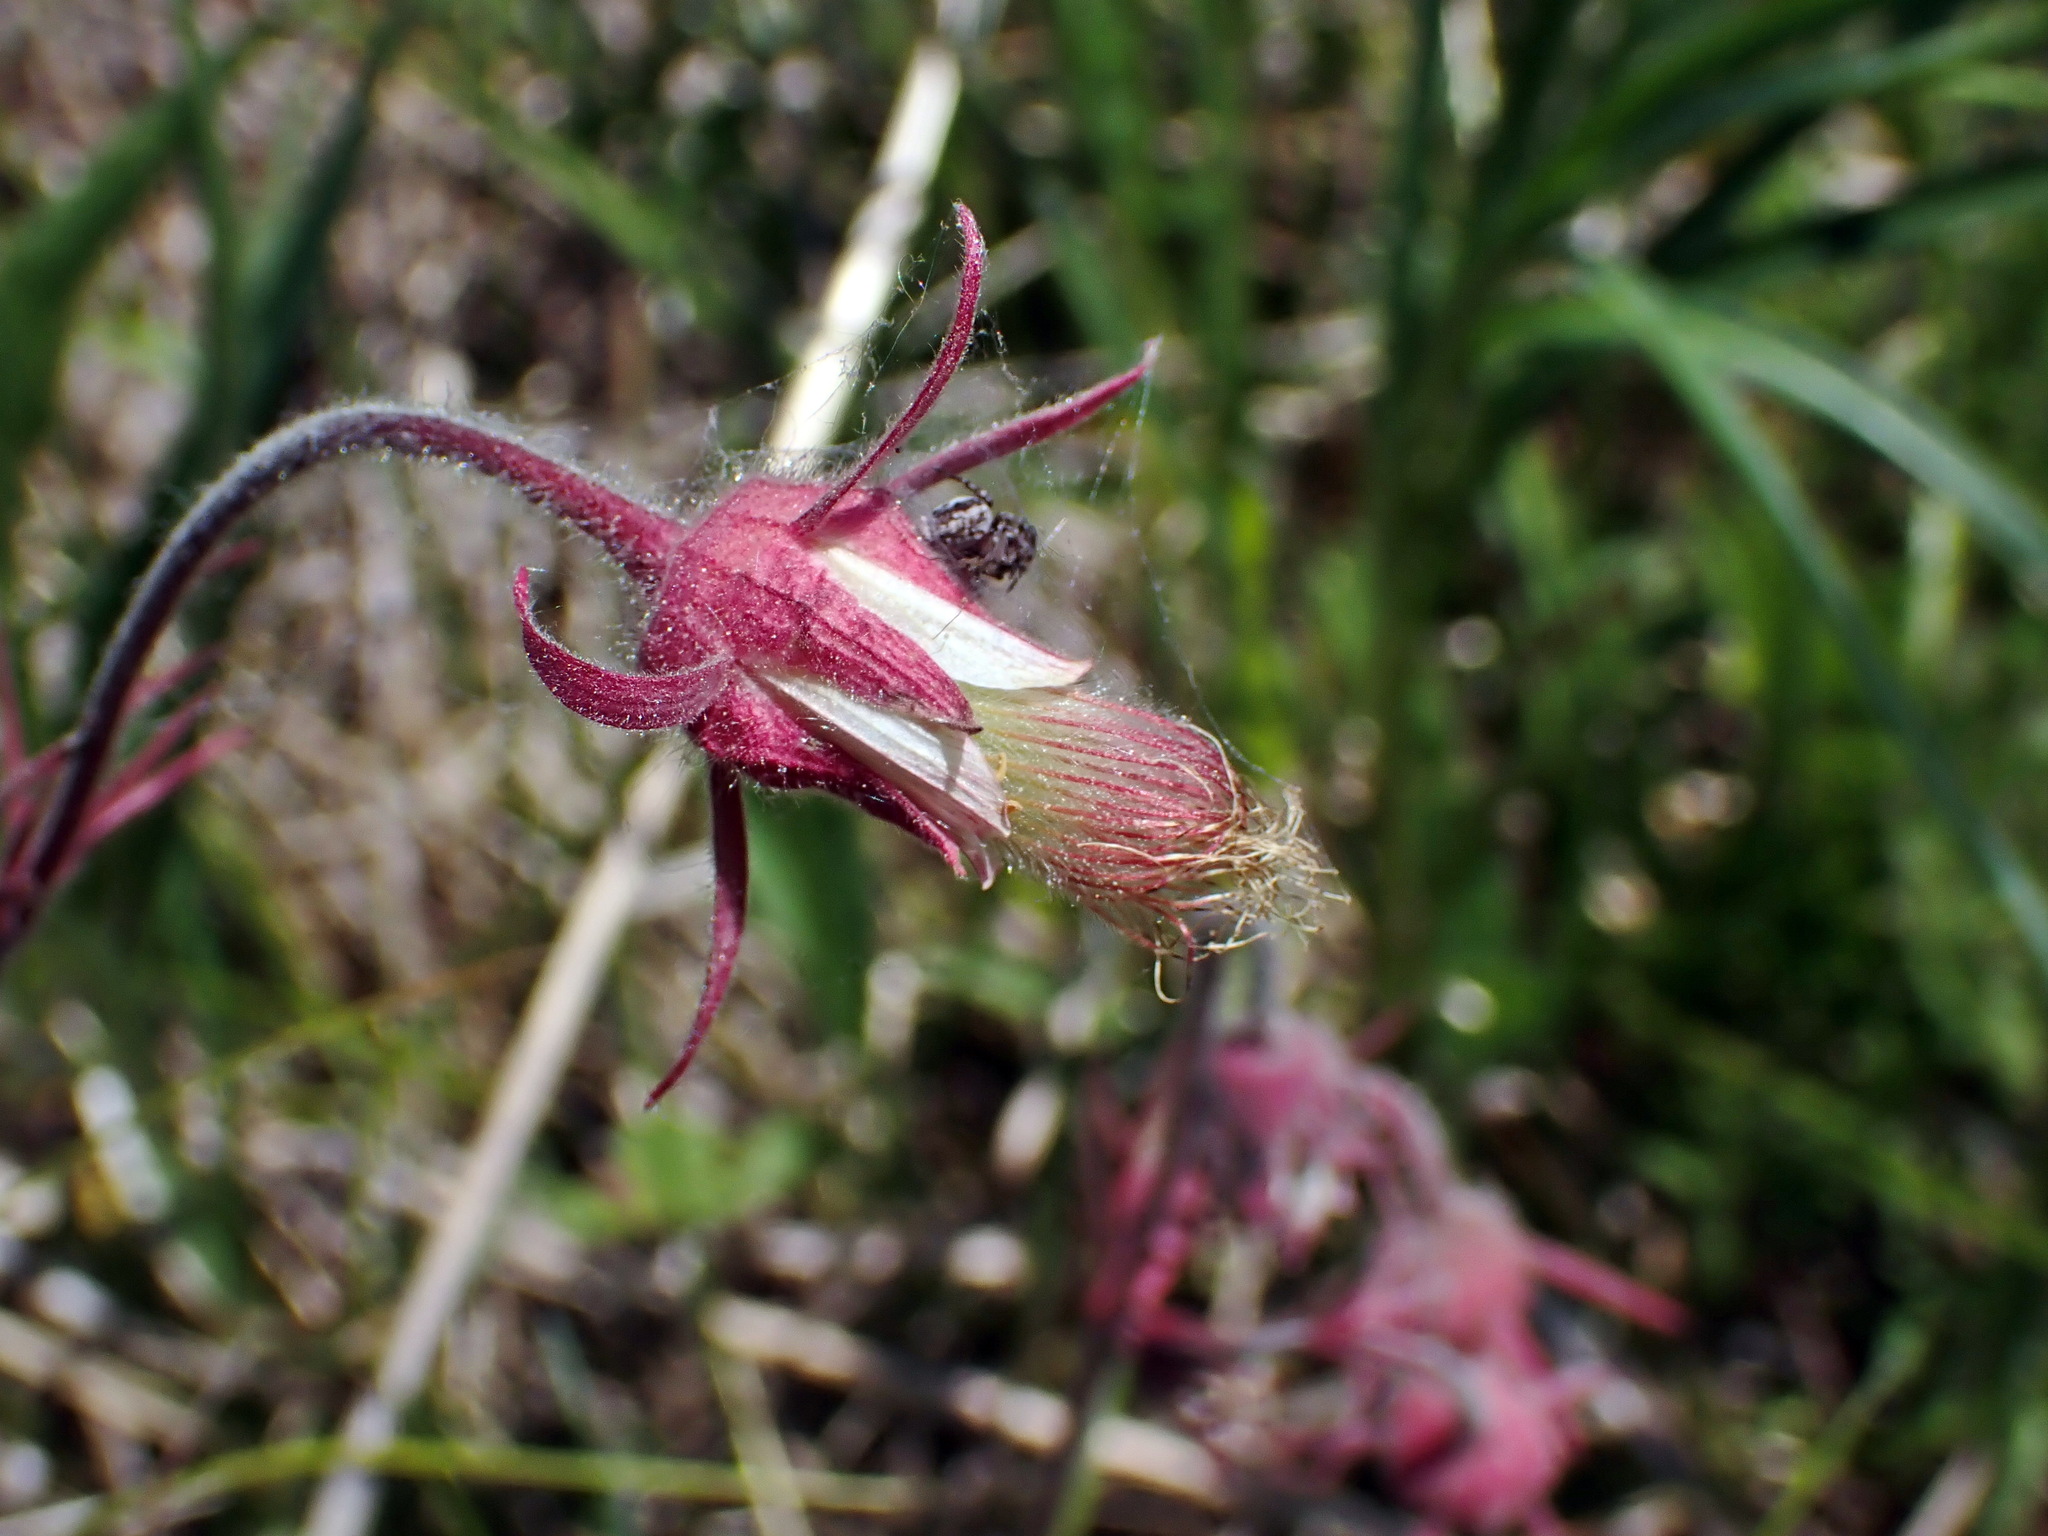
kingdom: Plantae
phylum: Tracheophyta
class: Magnoliopsida
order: Rosales
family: Rosaceae
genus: Geum
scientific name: Geum triflorum
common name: Old man's whiskers
